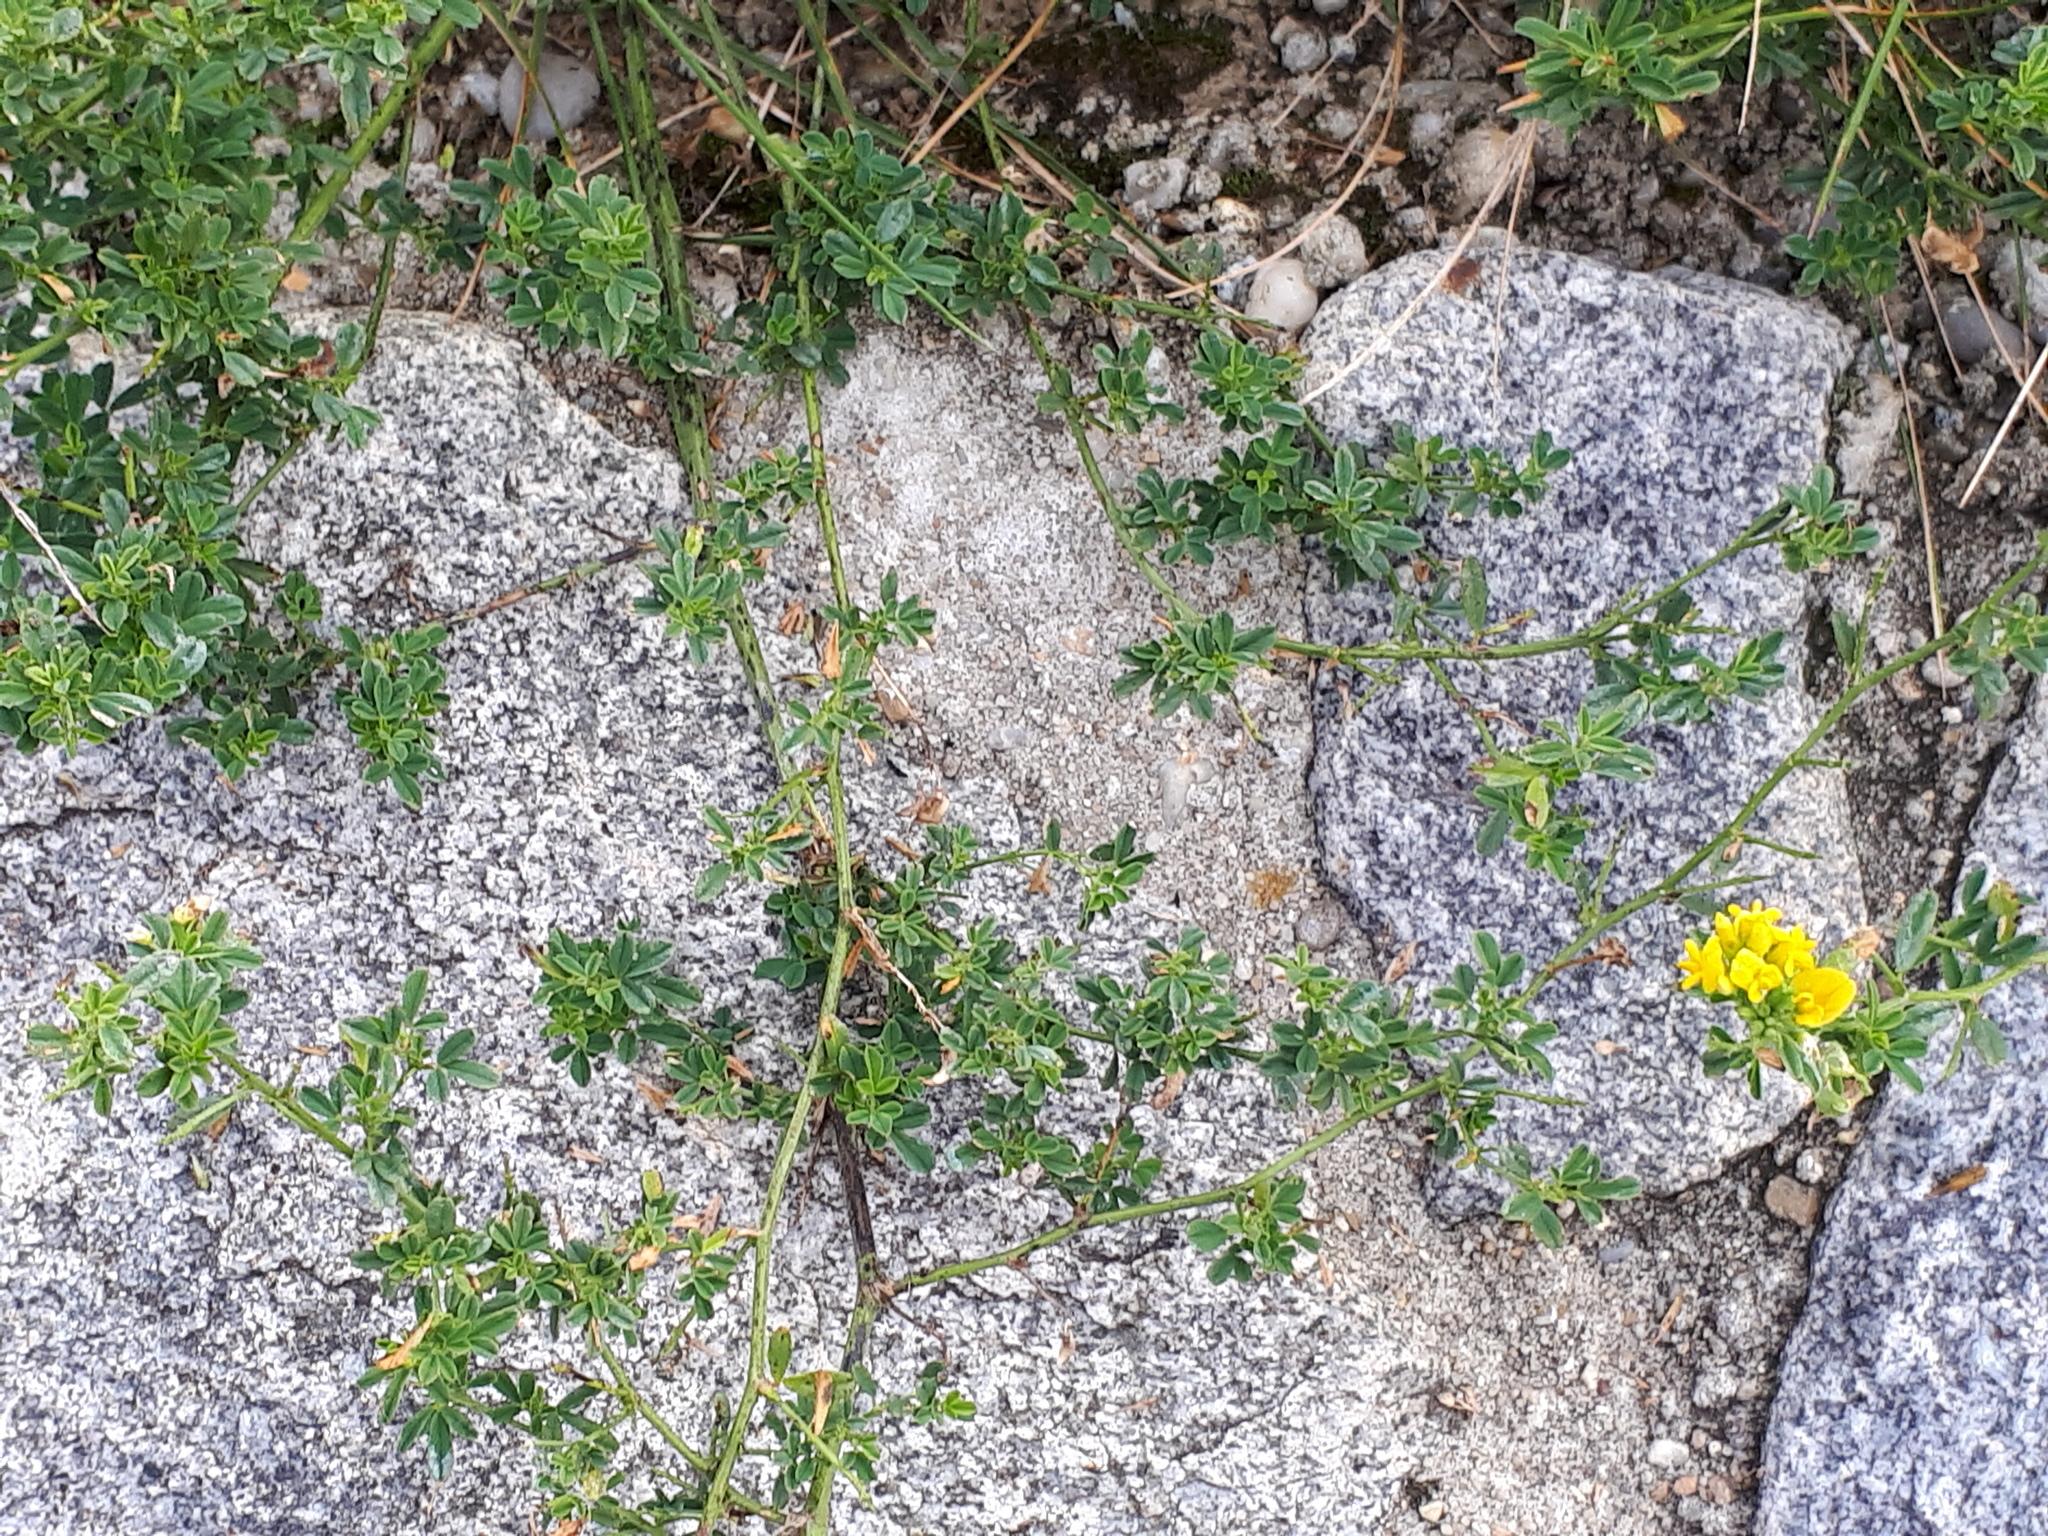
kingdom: Plantae
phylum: Tracheophyta
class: Magnoliopsida
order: Fabales
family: Fabaceae
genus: Medicago
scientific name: Medicago falcata
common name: Sickle medick
